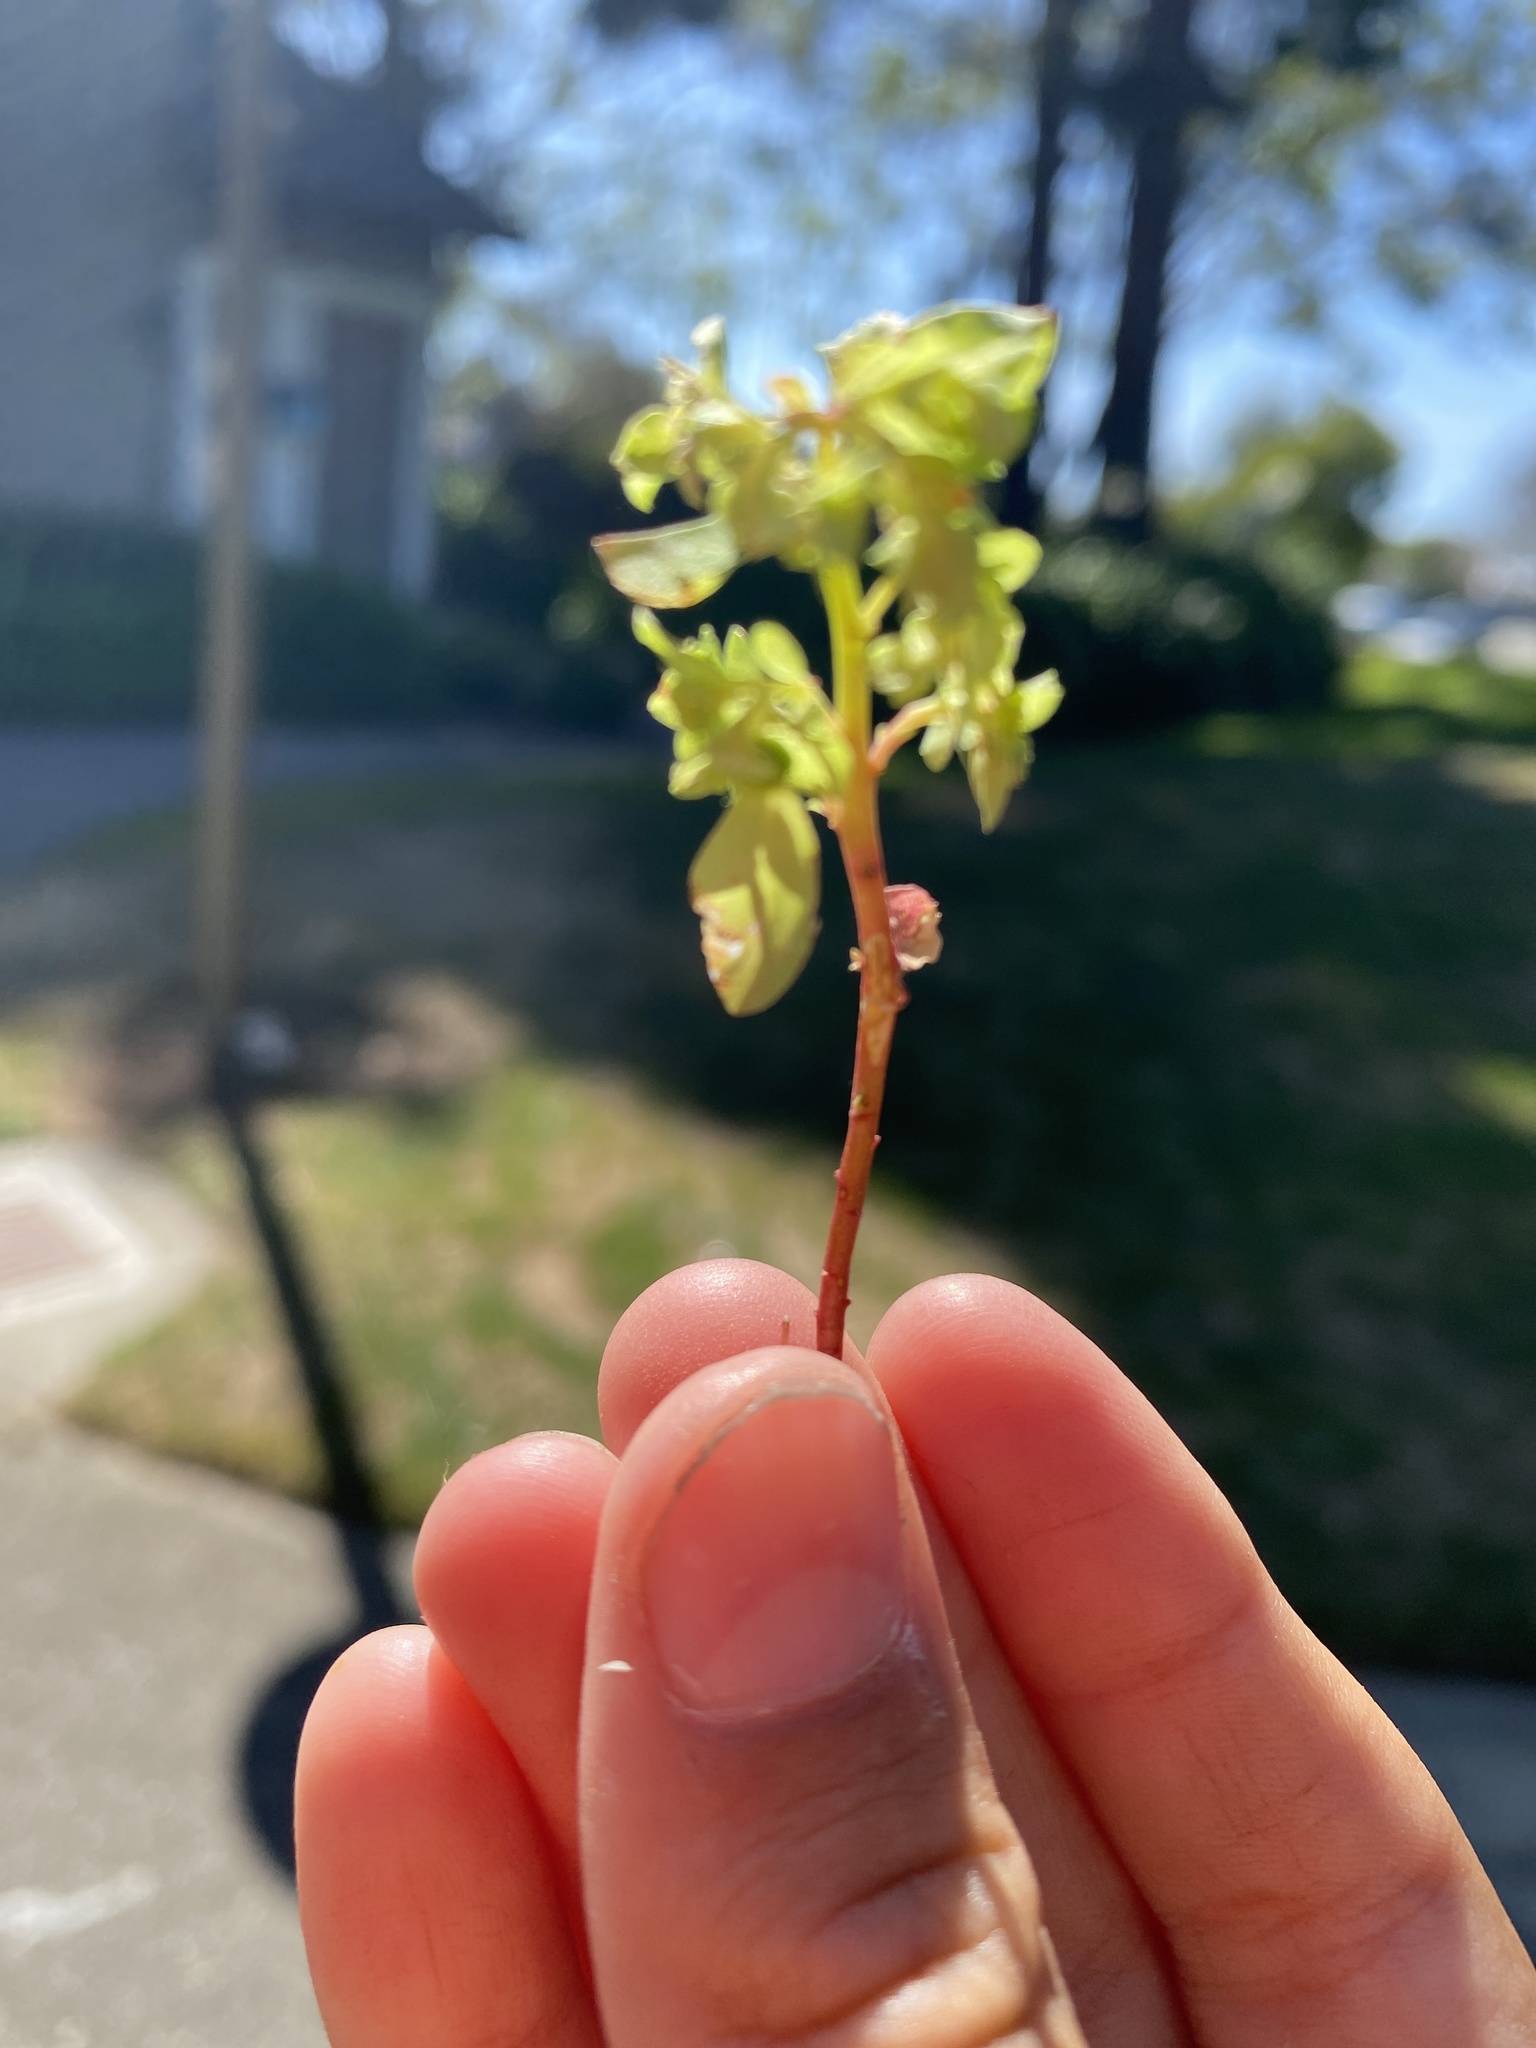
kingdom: Plantae
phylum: Tracheophyta
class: Magnoliopsida
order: Malpighiales
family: Euphorbiaceae
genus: Euphorbia
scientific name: Euphorbia peplus
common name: Petty spurge
